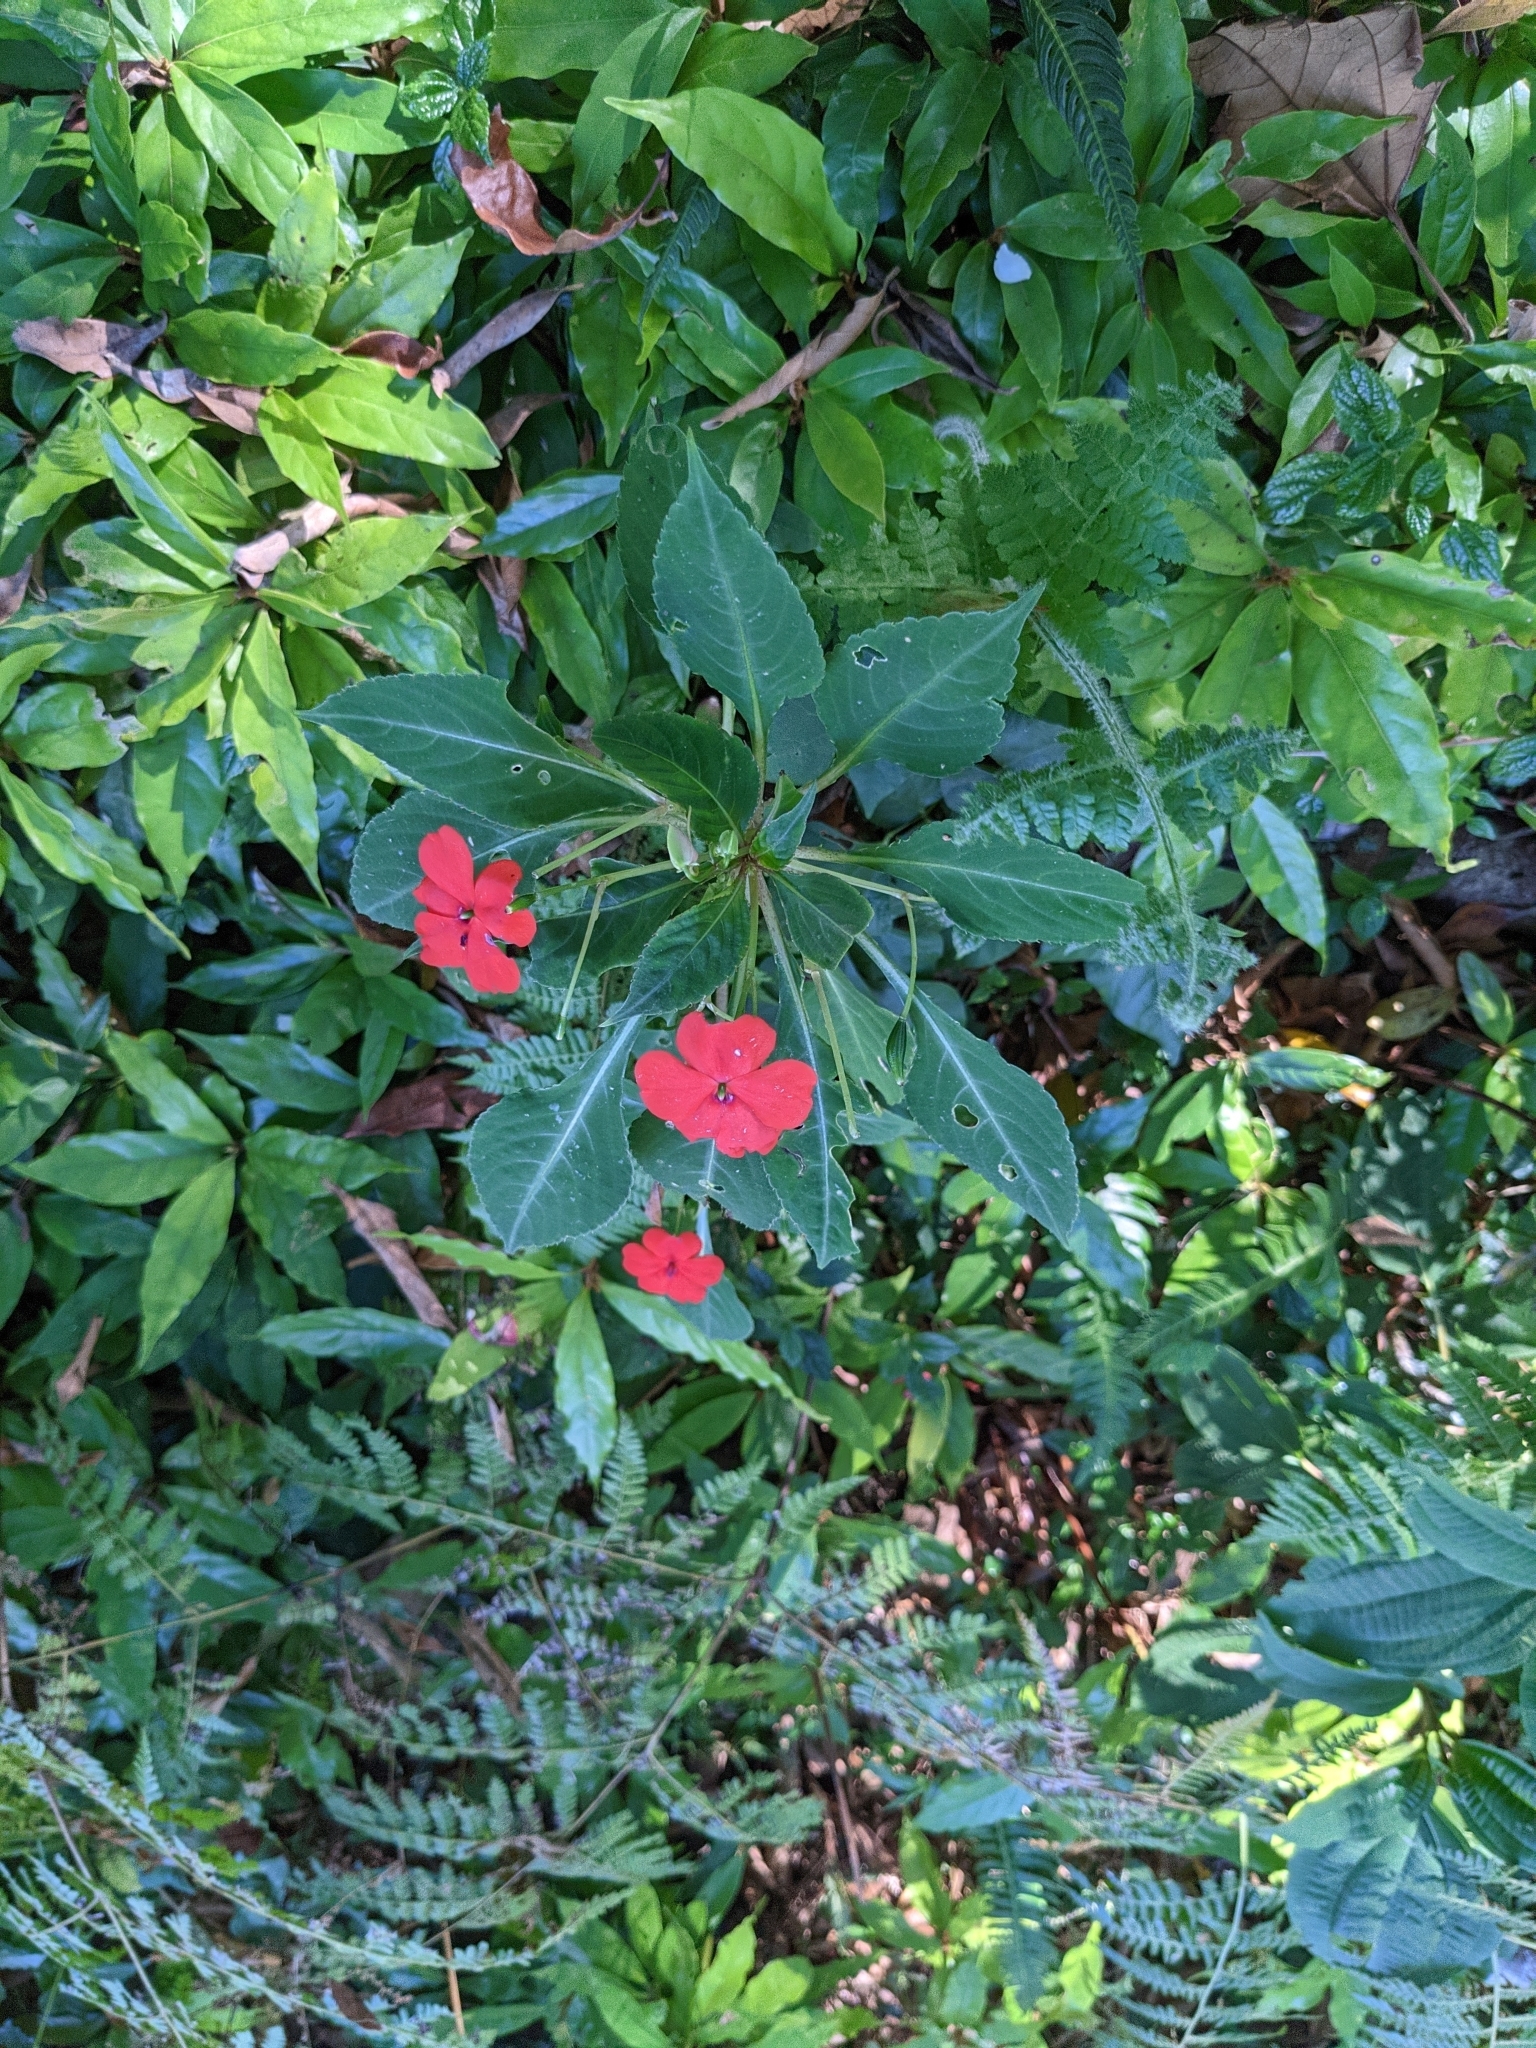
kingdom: Plantae
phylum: Tracheophyta
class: Magnoliopsida
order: Ericales
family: Balsaminaceae
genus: Impatiens
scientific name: Impatiens walleriana
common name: Buzzy lizzy
